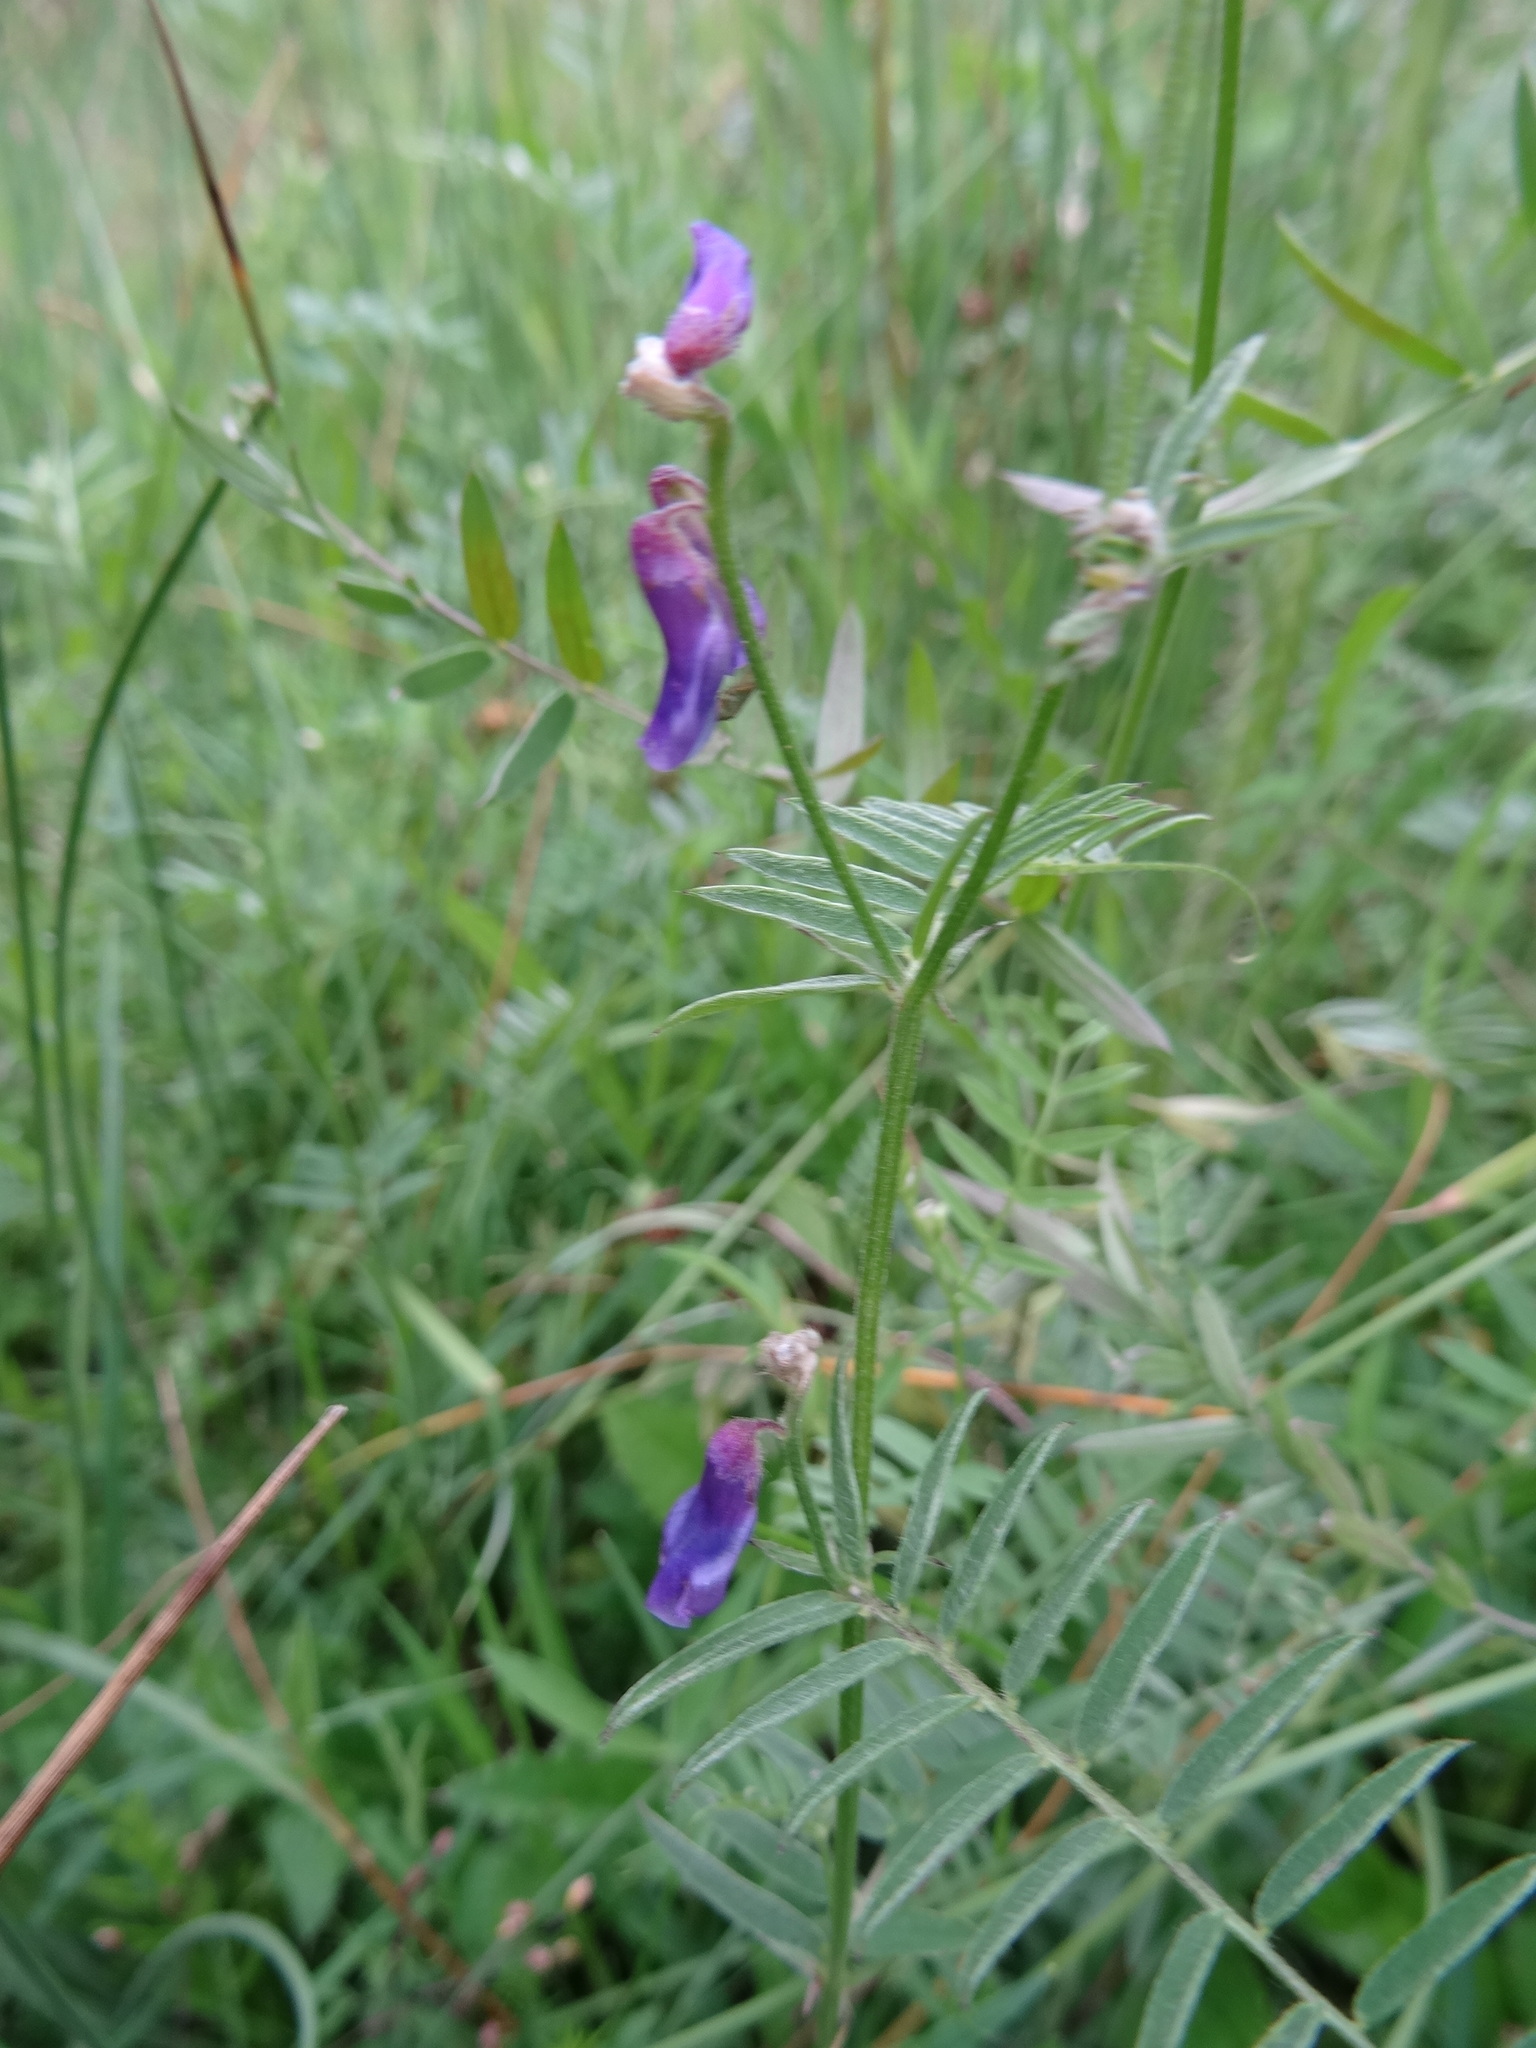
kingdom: Plantae
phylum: Tracheophyta
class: Magnoliopsida
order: Fabales
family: Fabaceae
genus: Vicia
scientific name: Vicia cracca
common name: Bird vetch
